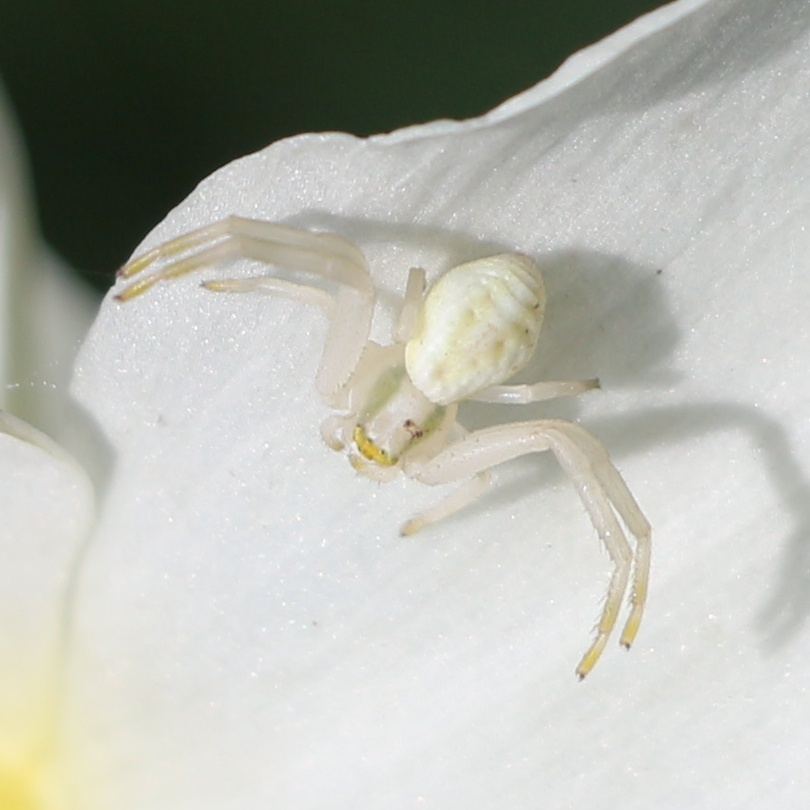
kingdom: Animalia
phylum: Arthropoda
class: Arachnida
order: Araneae
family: Thomisidae
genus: Misumena
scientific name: Misumena vatia
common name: Goldenrod crab spider
